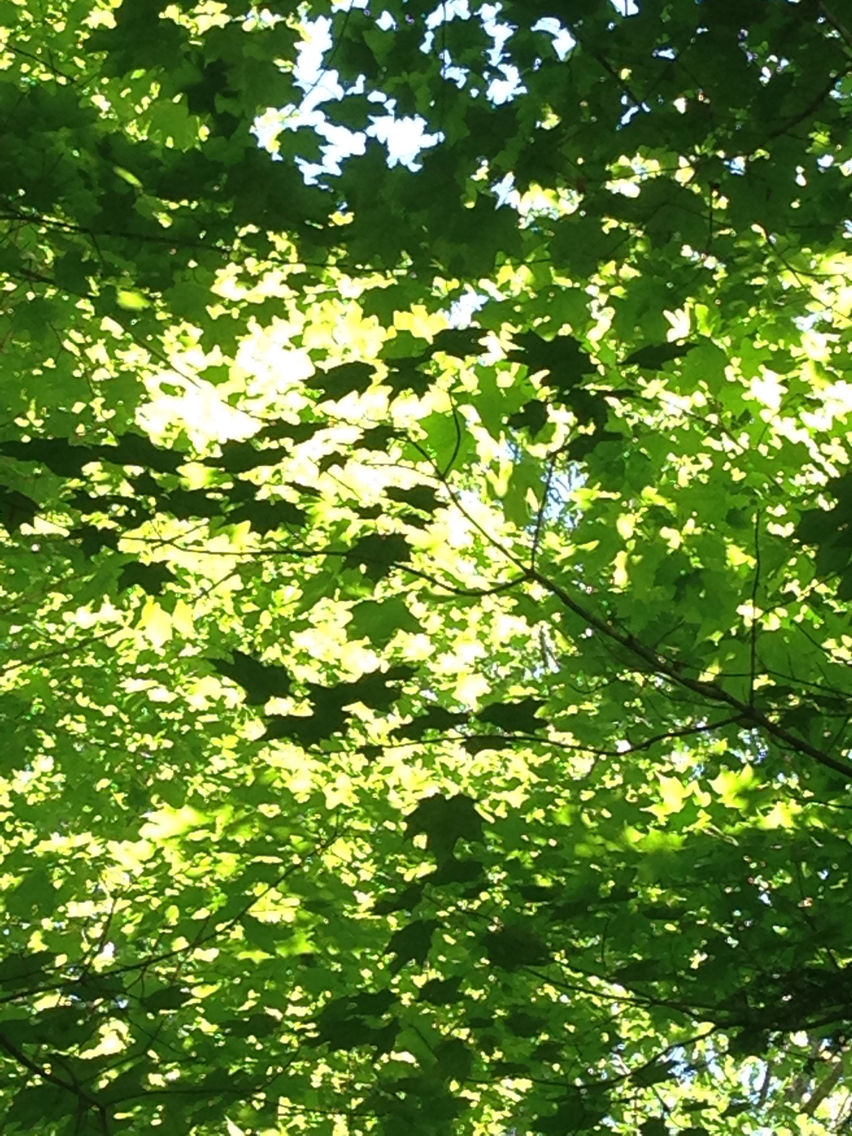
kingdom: Plantae
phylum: Tracheophyta
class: Magnoliopsida
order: Sapindales
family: Sapindaceae
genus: Acer
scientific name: Acer saccharum
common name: Sugar maple
